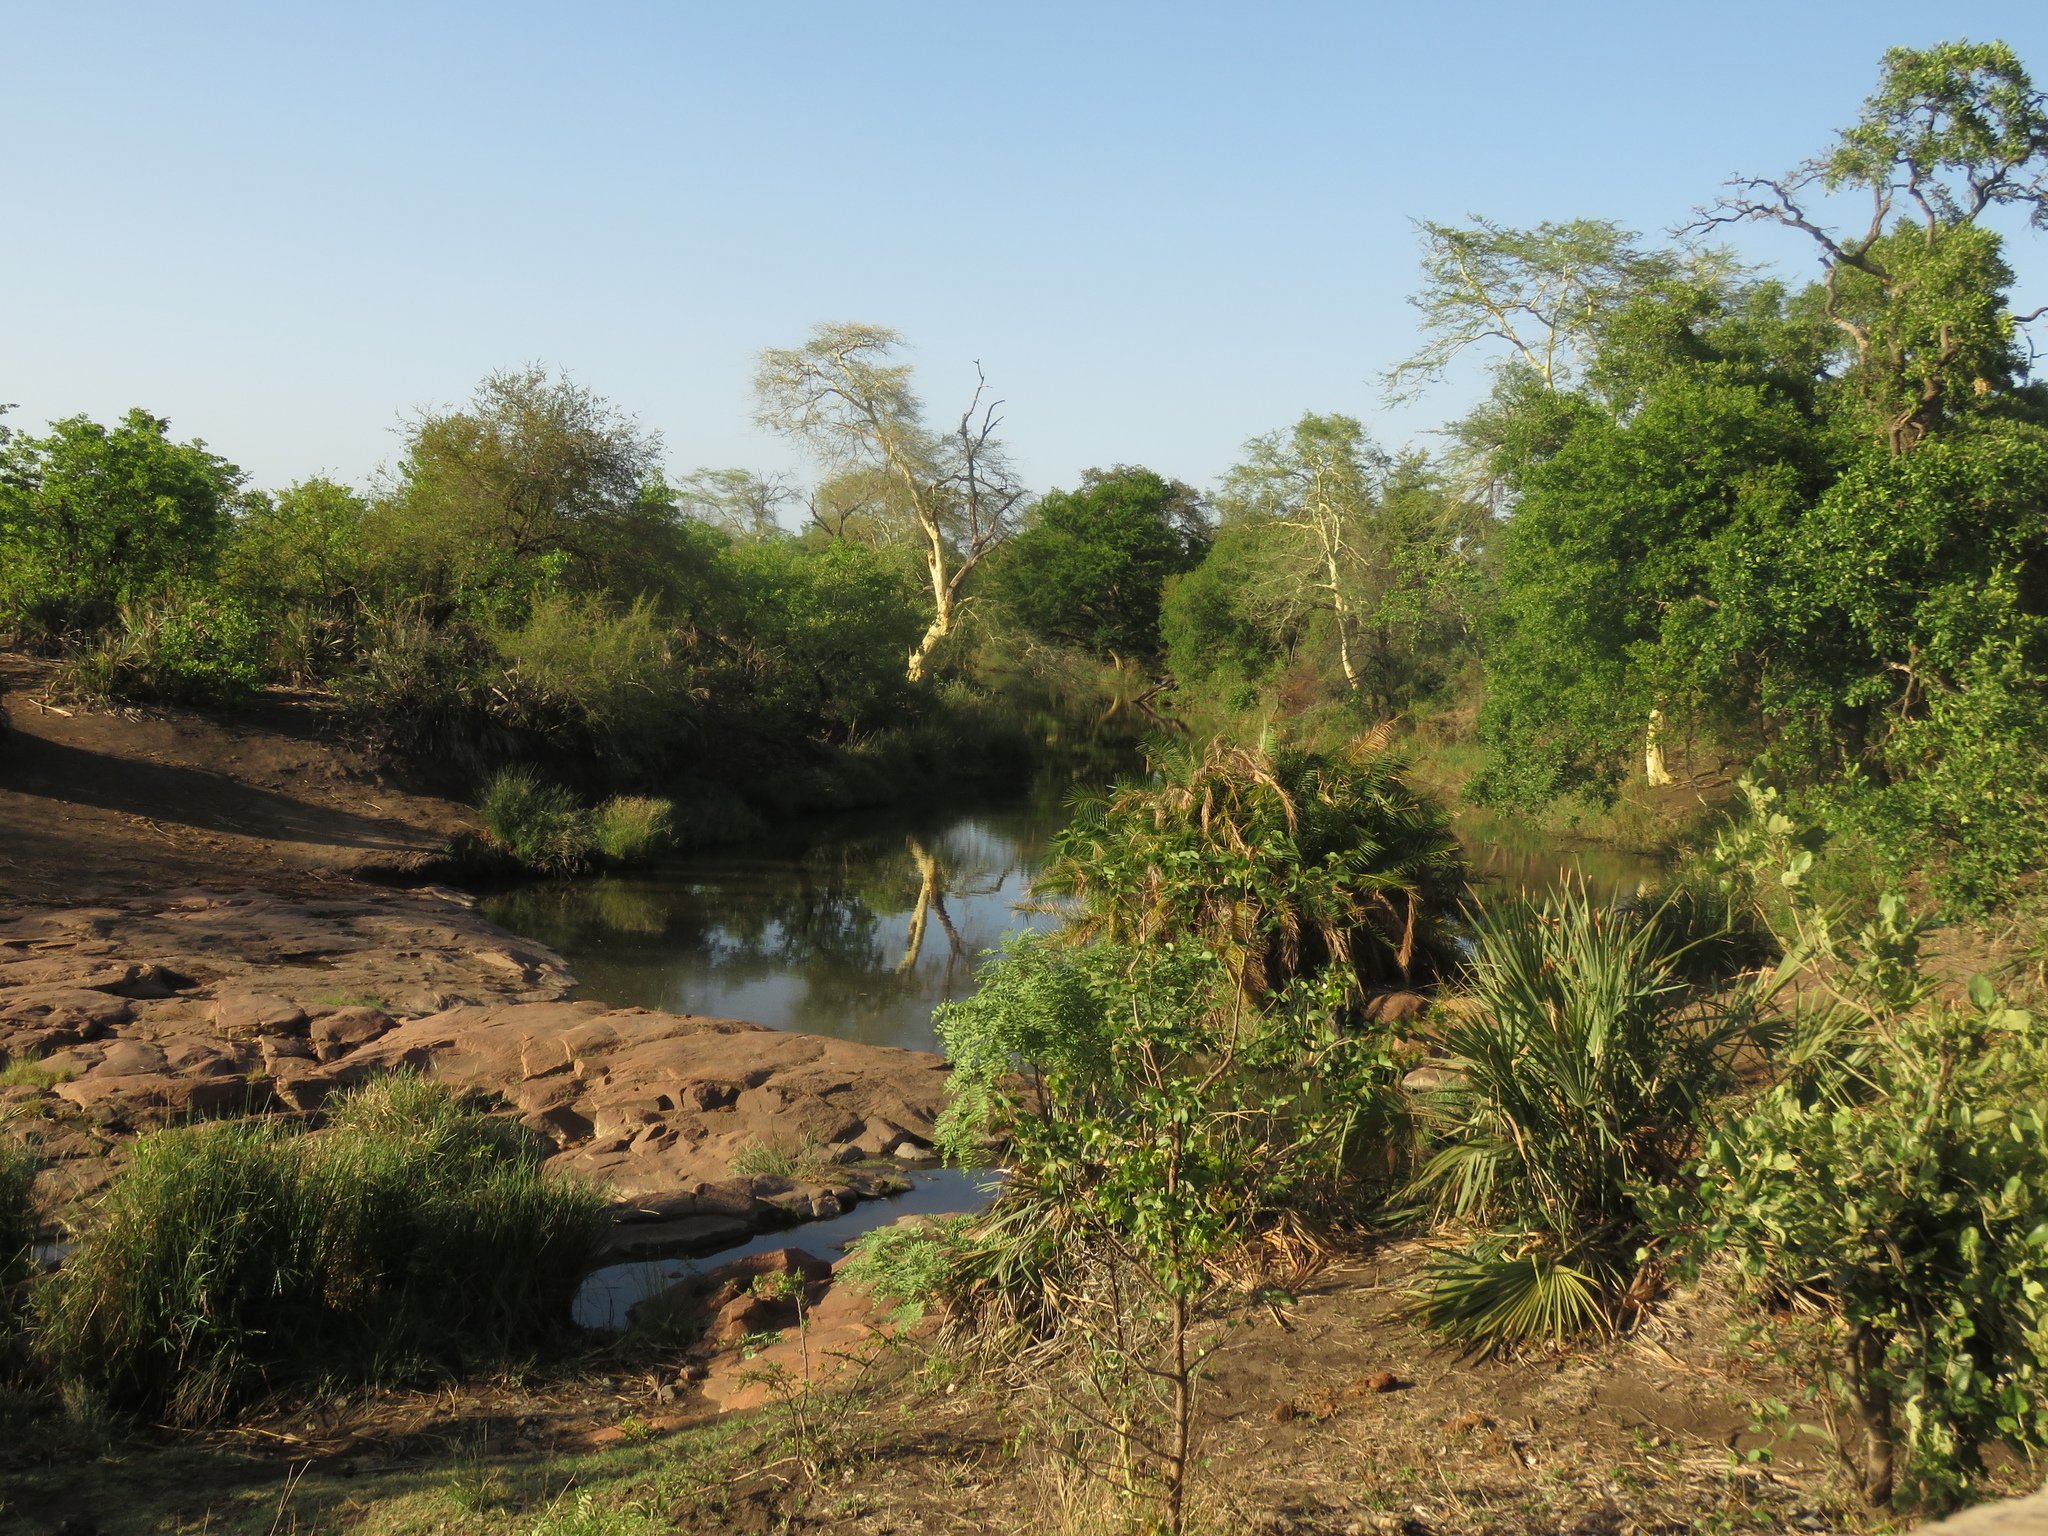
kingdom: Plantae
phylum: Tracheophyta
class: Magnoliopsida
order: Fabales
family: Fabaceae
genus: Vachellia
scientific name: Vachellia xanthophloea
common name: Fever tree
